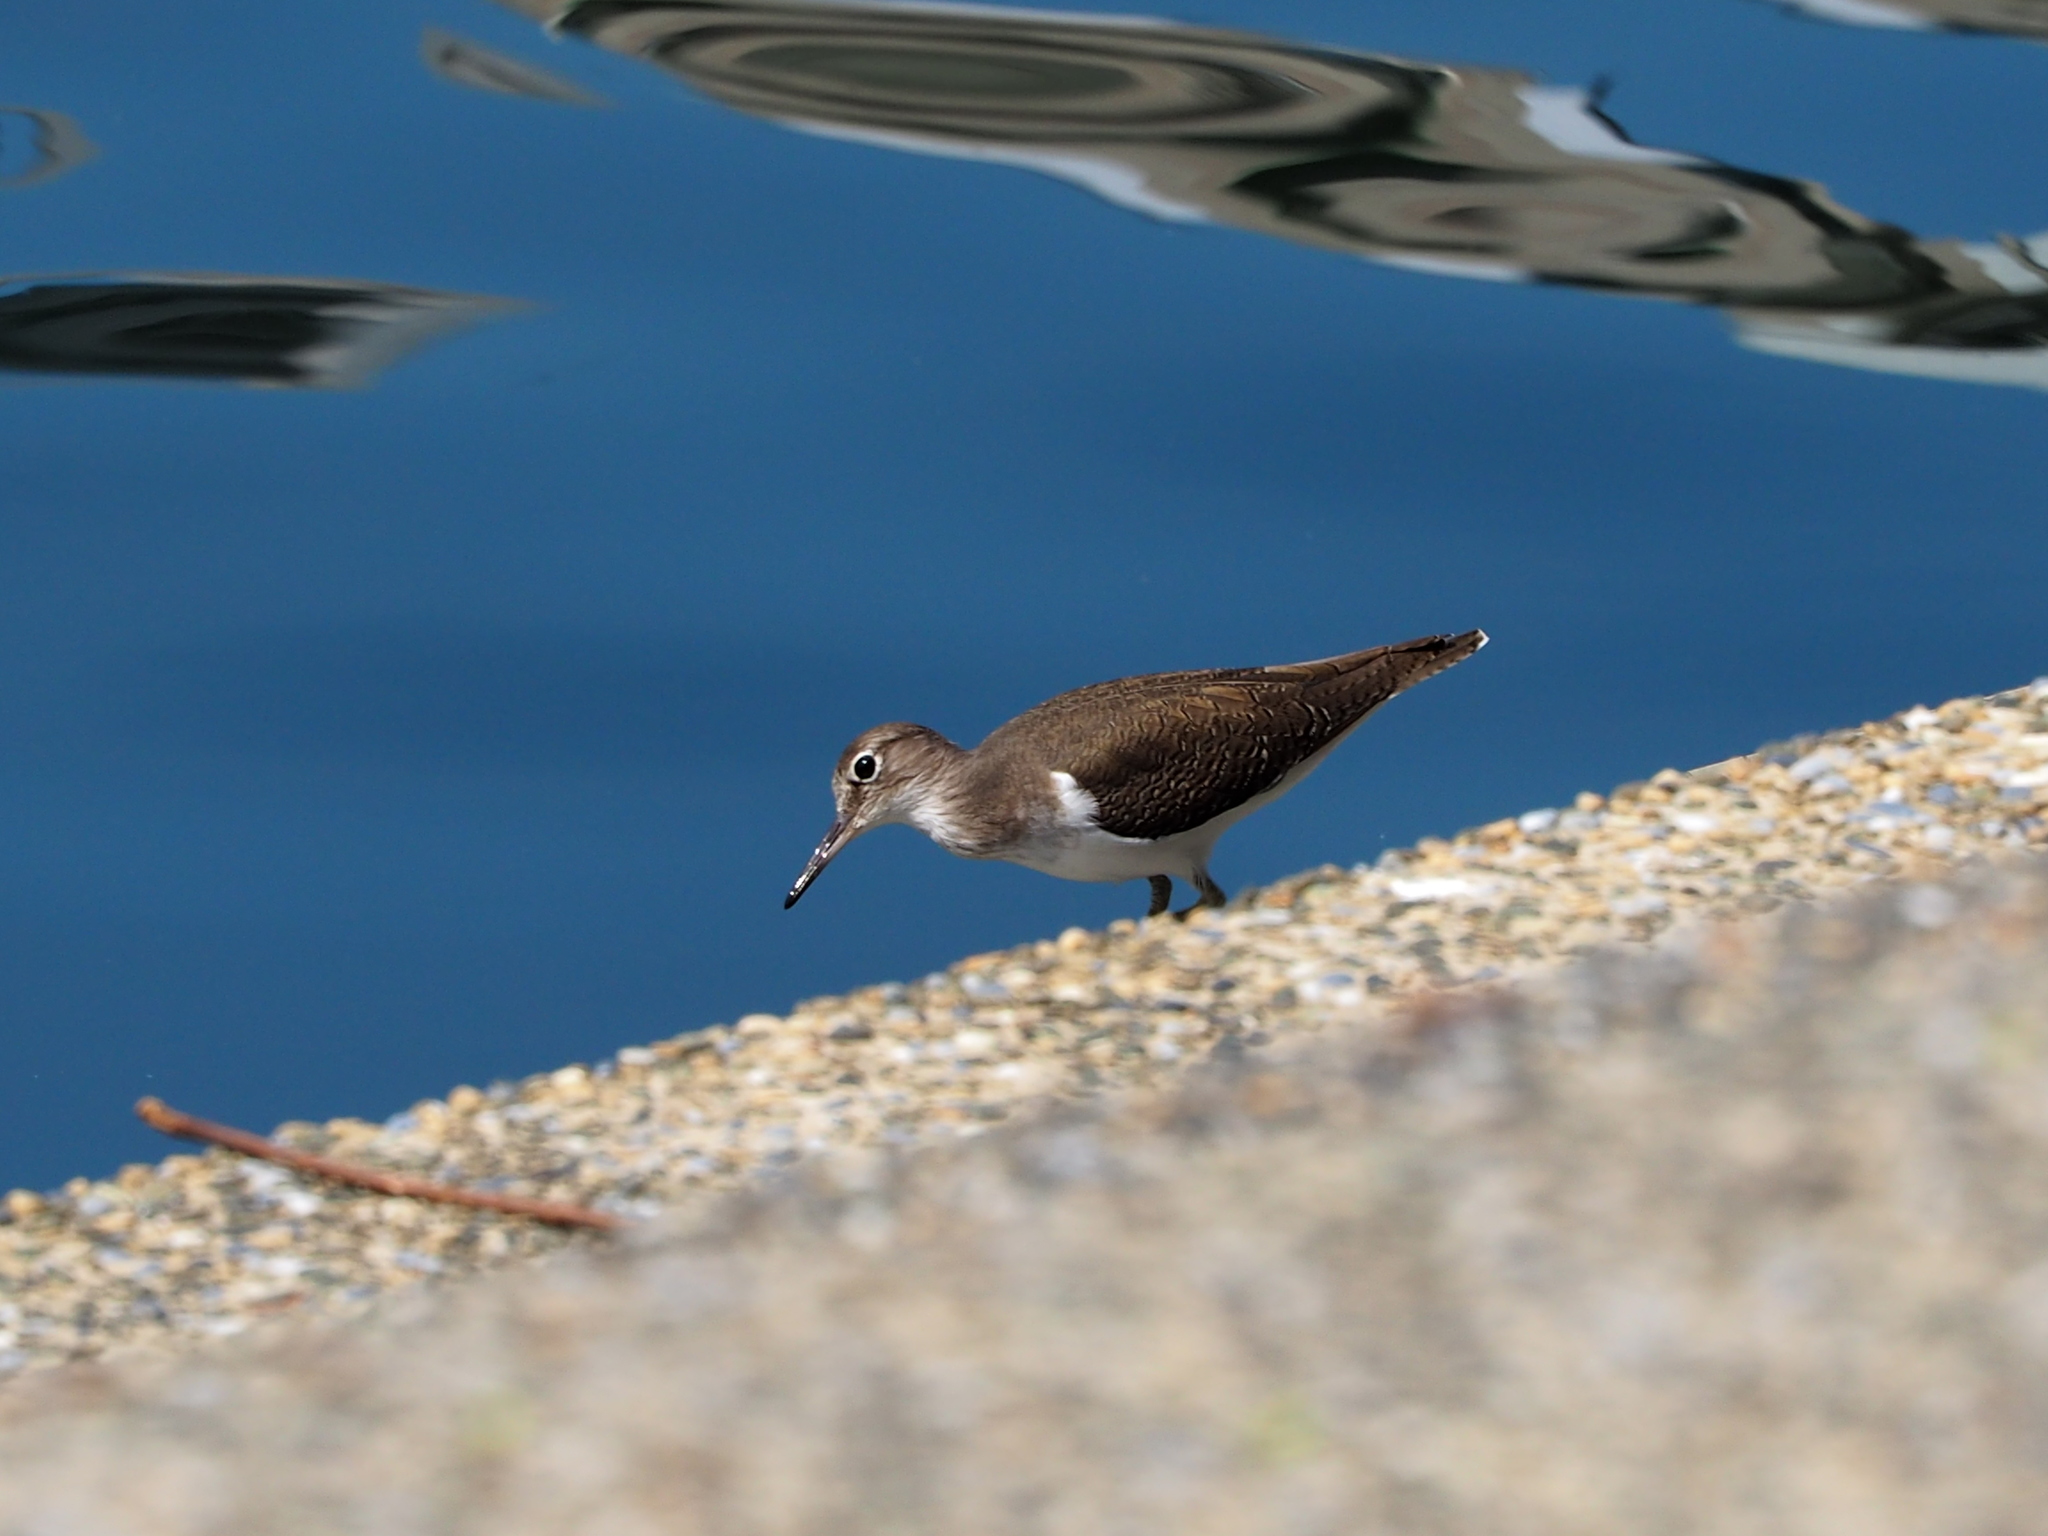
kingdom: Animalia
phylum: Chordata
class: Aves
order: Charadriiformes
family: Scolopacidae
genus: Actitis
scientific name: Actitis hypoleucos
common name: Common sandpiper
